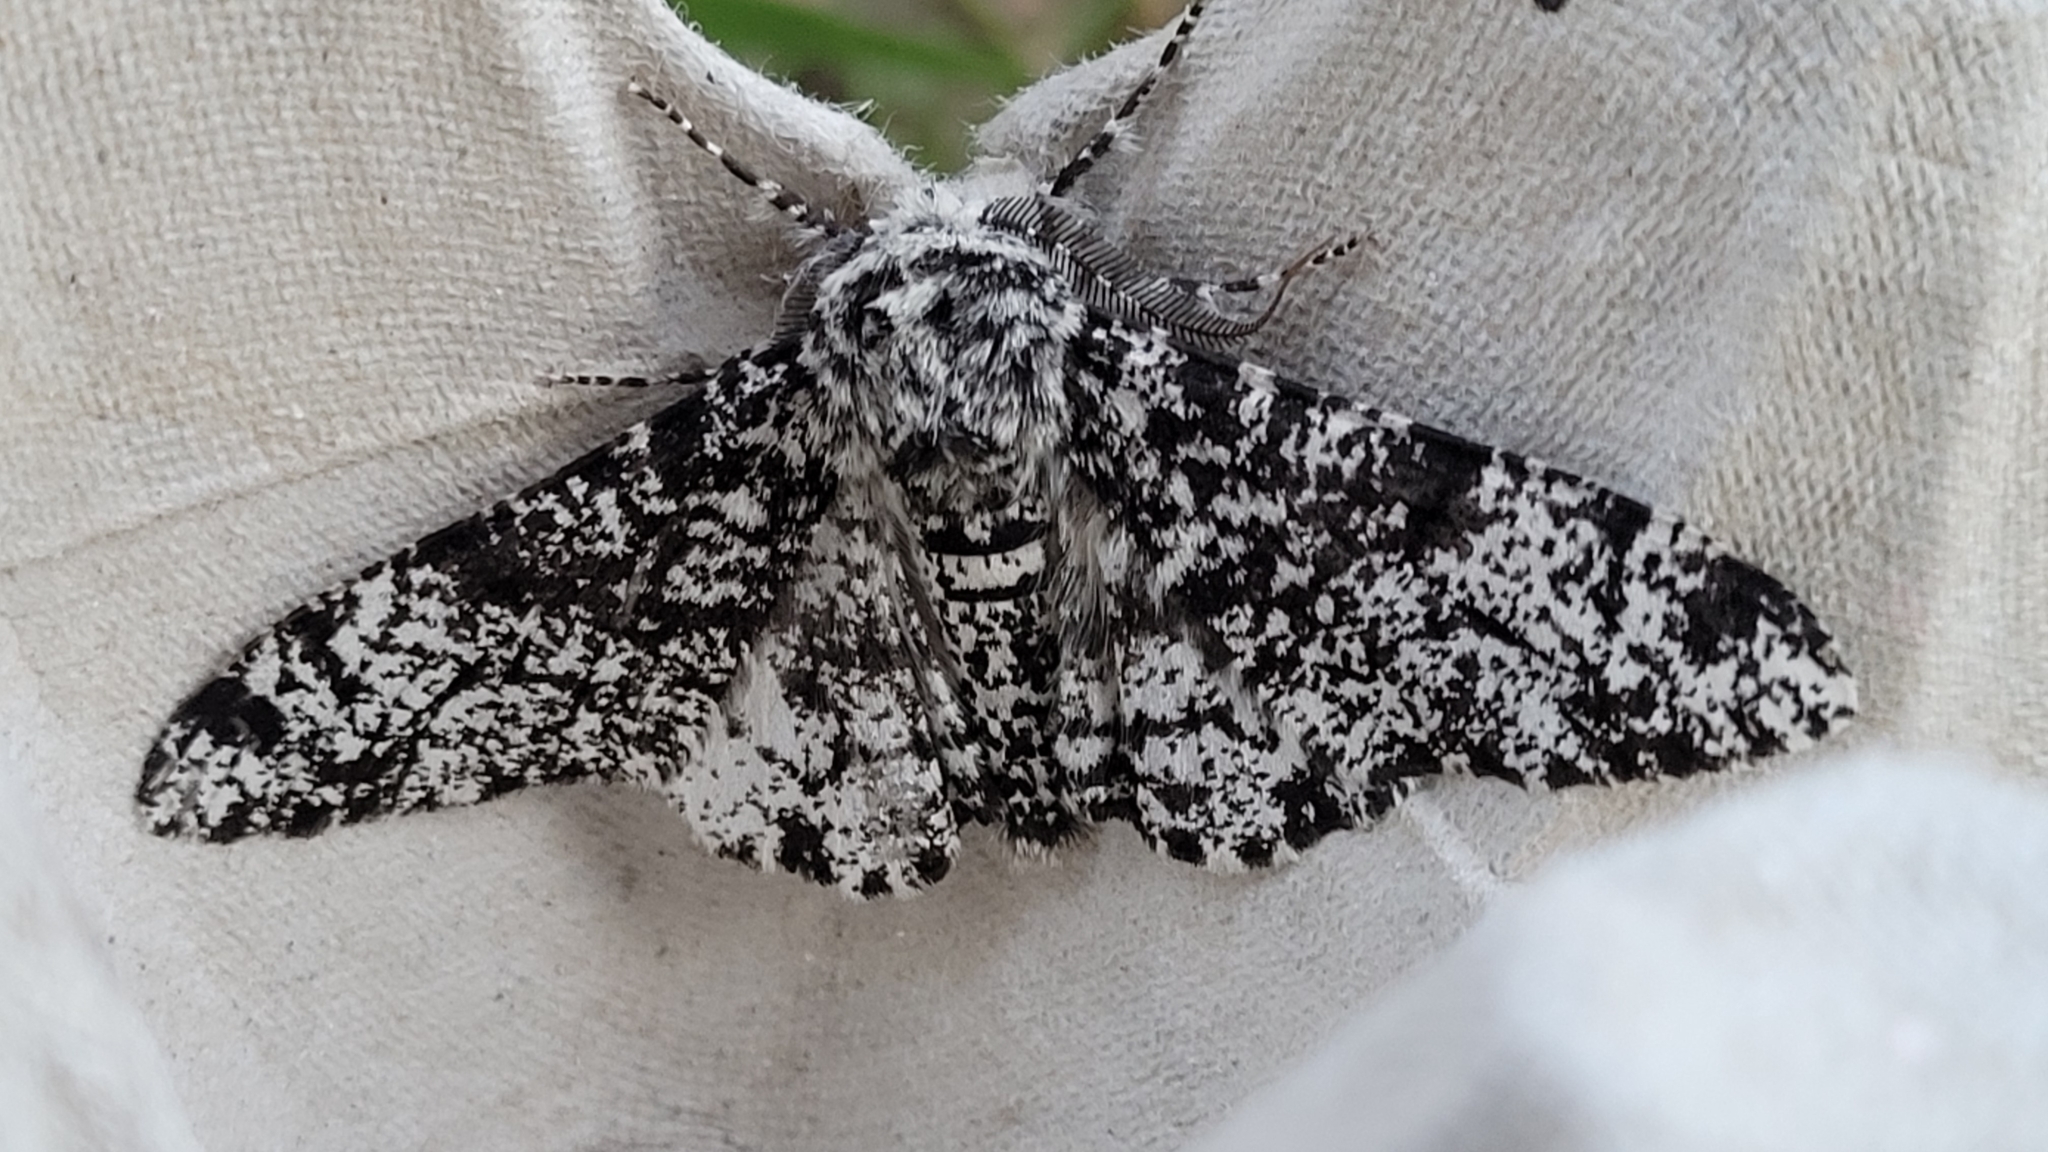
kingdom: Animalia
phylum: Arthropoda
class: Insecta
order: Lepidoptera
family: Geometridae
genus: Biston
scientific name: Biston betularia
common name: Peppered moth
